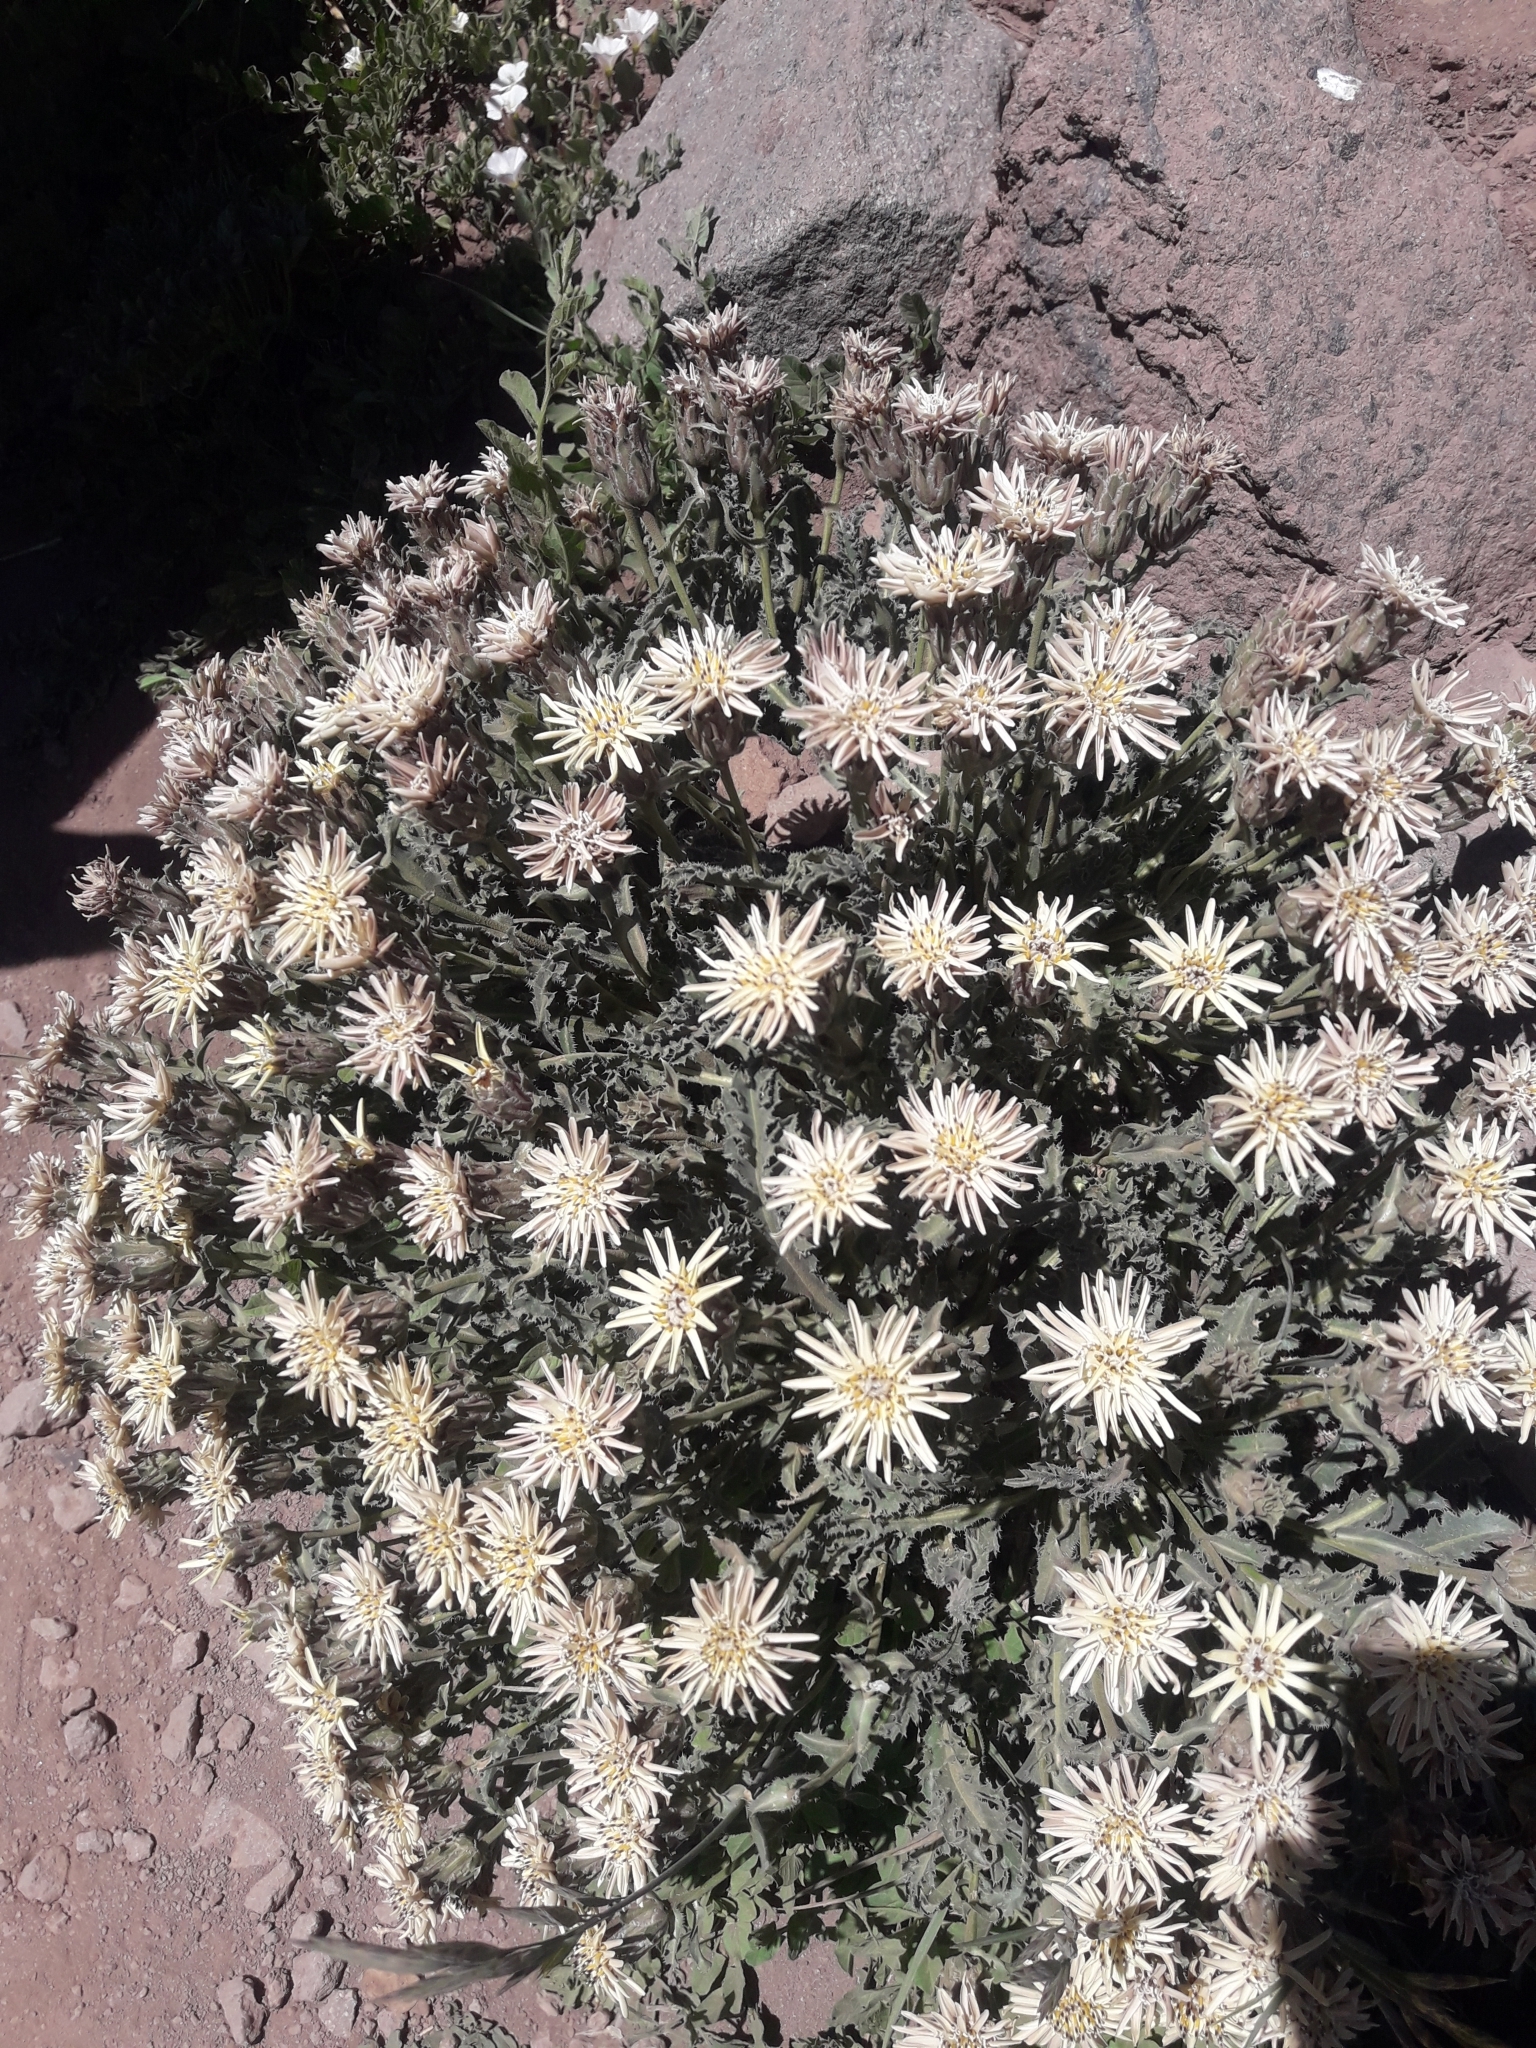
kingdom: Plantae
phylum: Tracheophyta
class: Magnoliopsida
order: Asterales
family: Asteraceae
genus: Perezia
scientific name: Perezia carthamoides
